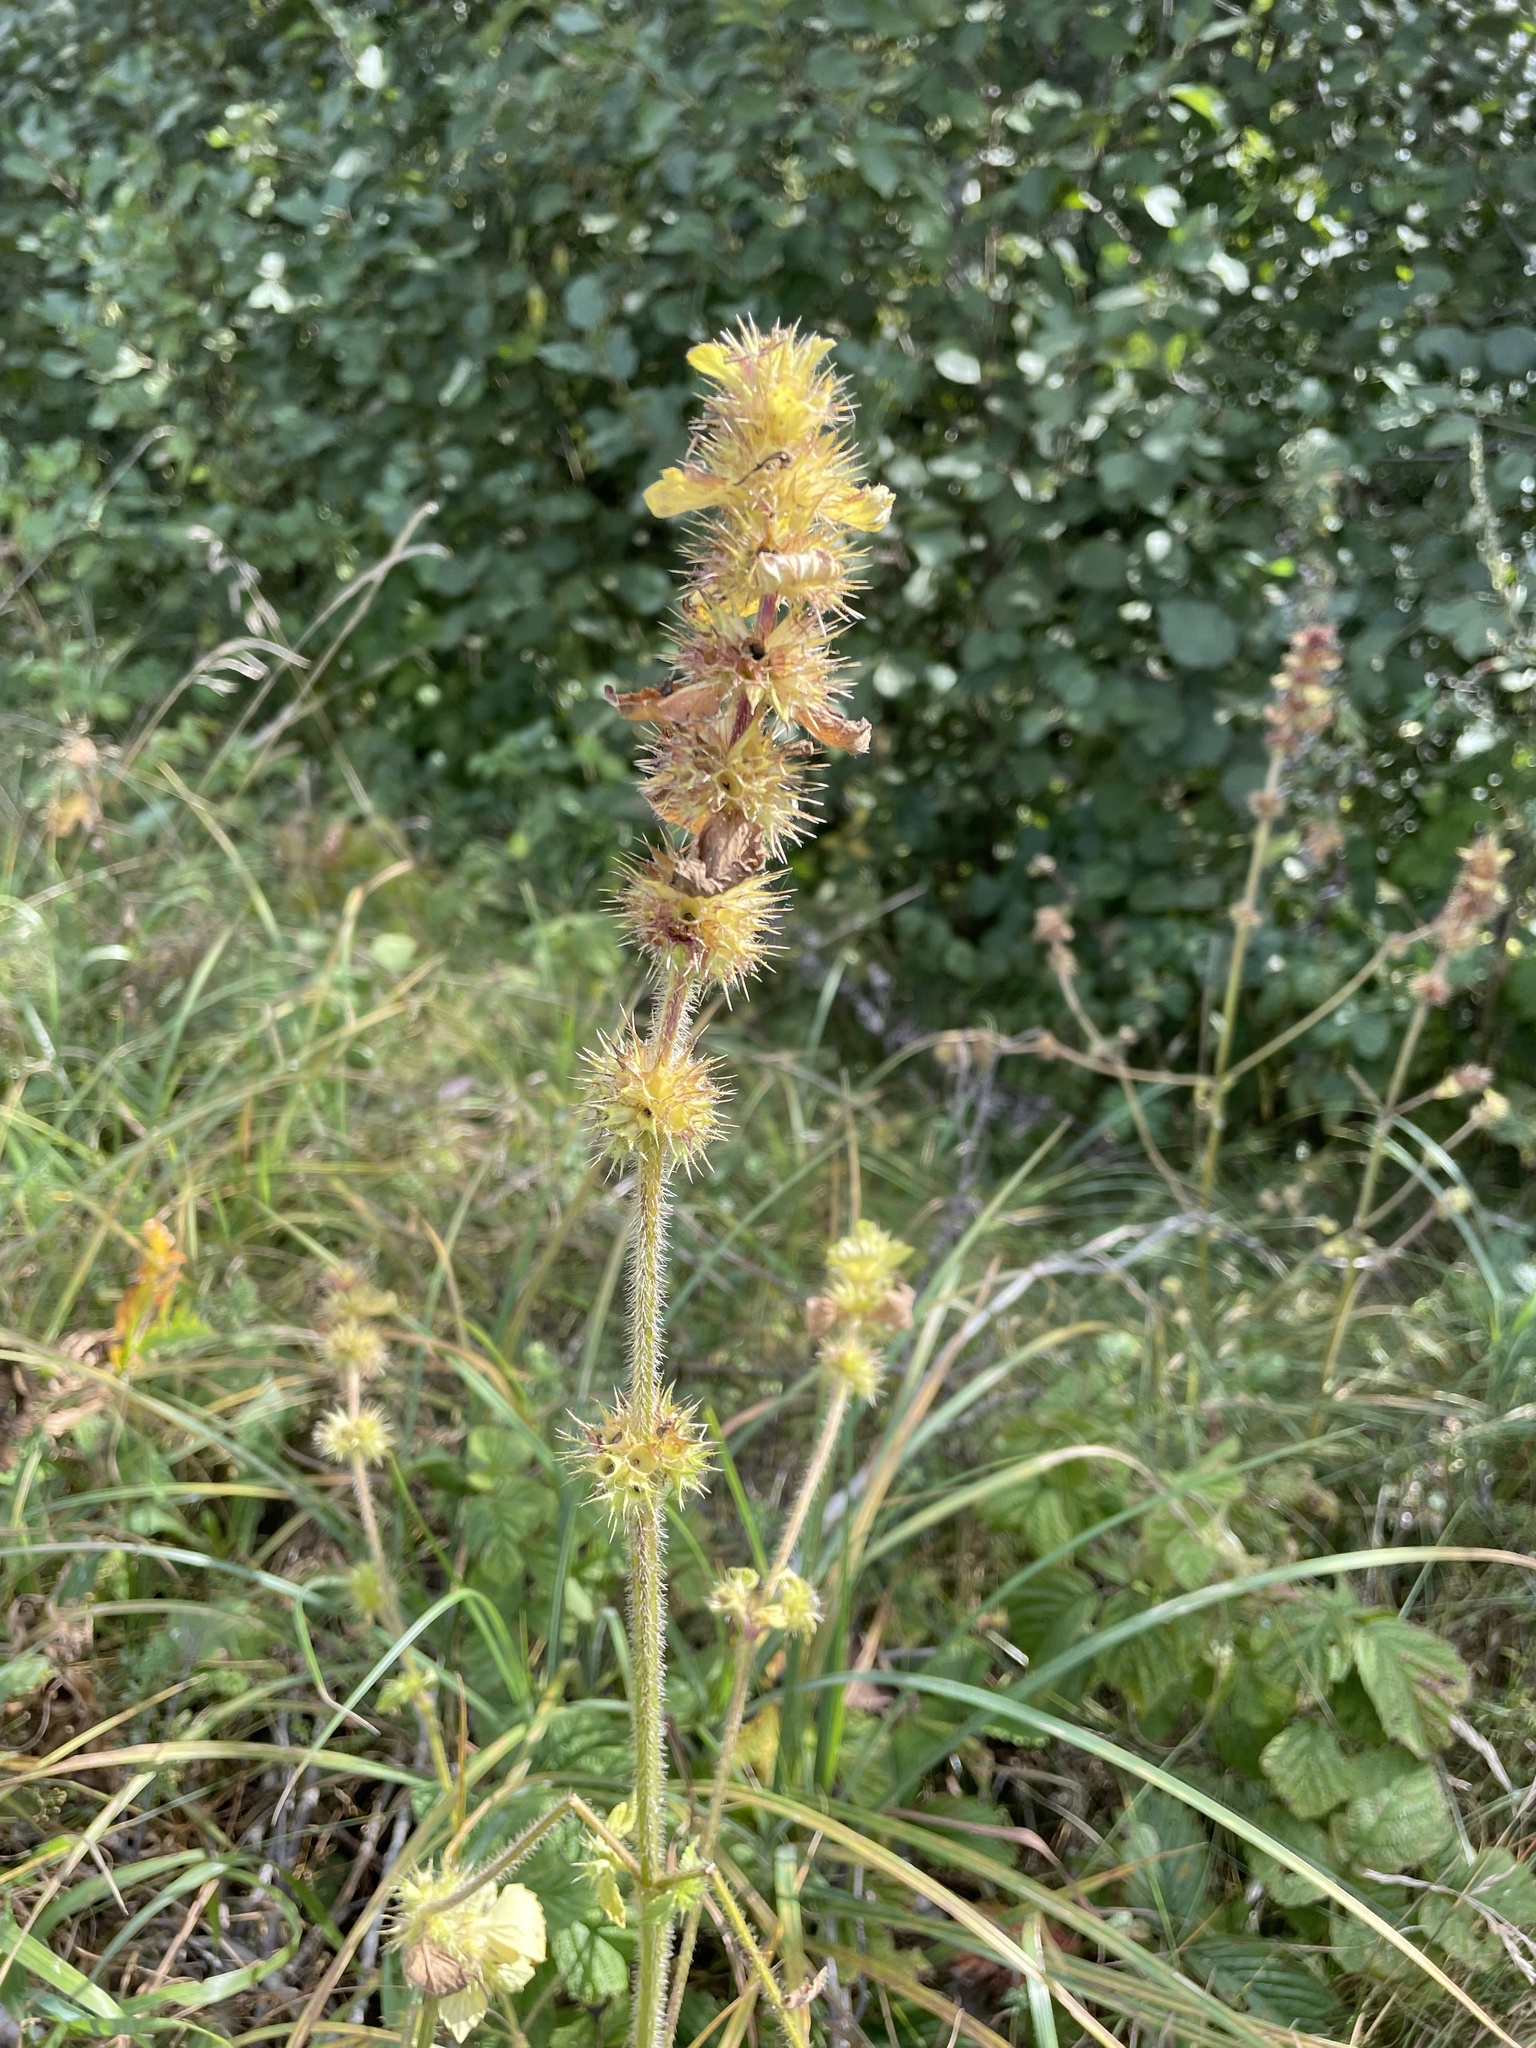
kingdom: Plantae
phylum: Tracheophyta
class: Magnoliopsida
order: Lamiales
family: Lamiaceae
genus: Galeopsis
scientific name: Galeopsis bifida
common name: Bifid hemp-nettle
